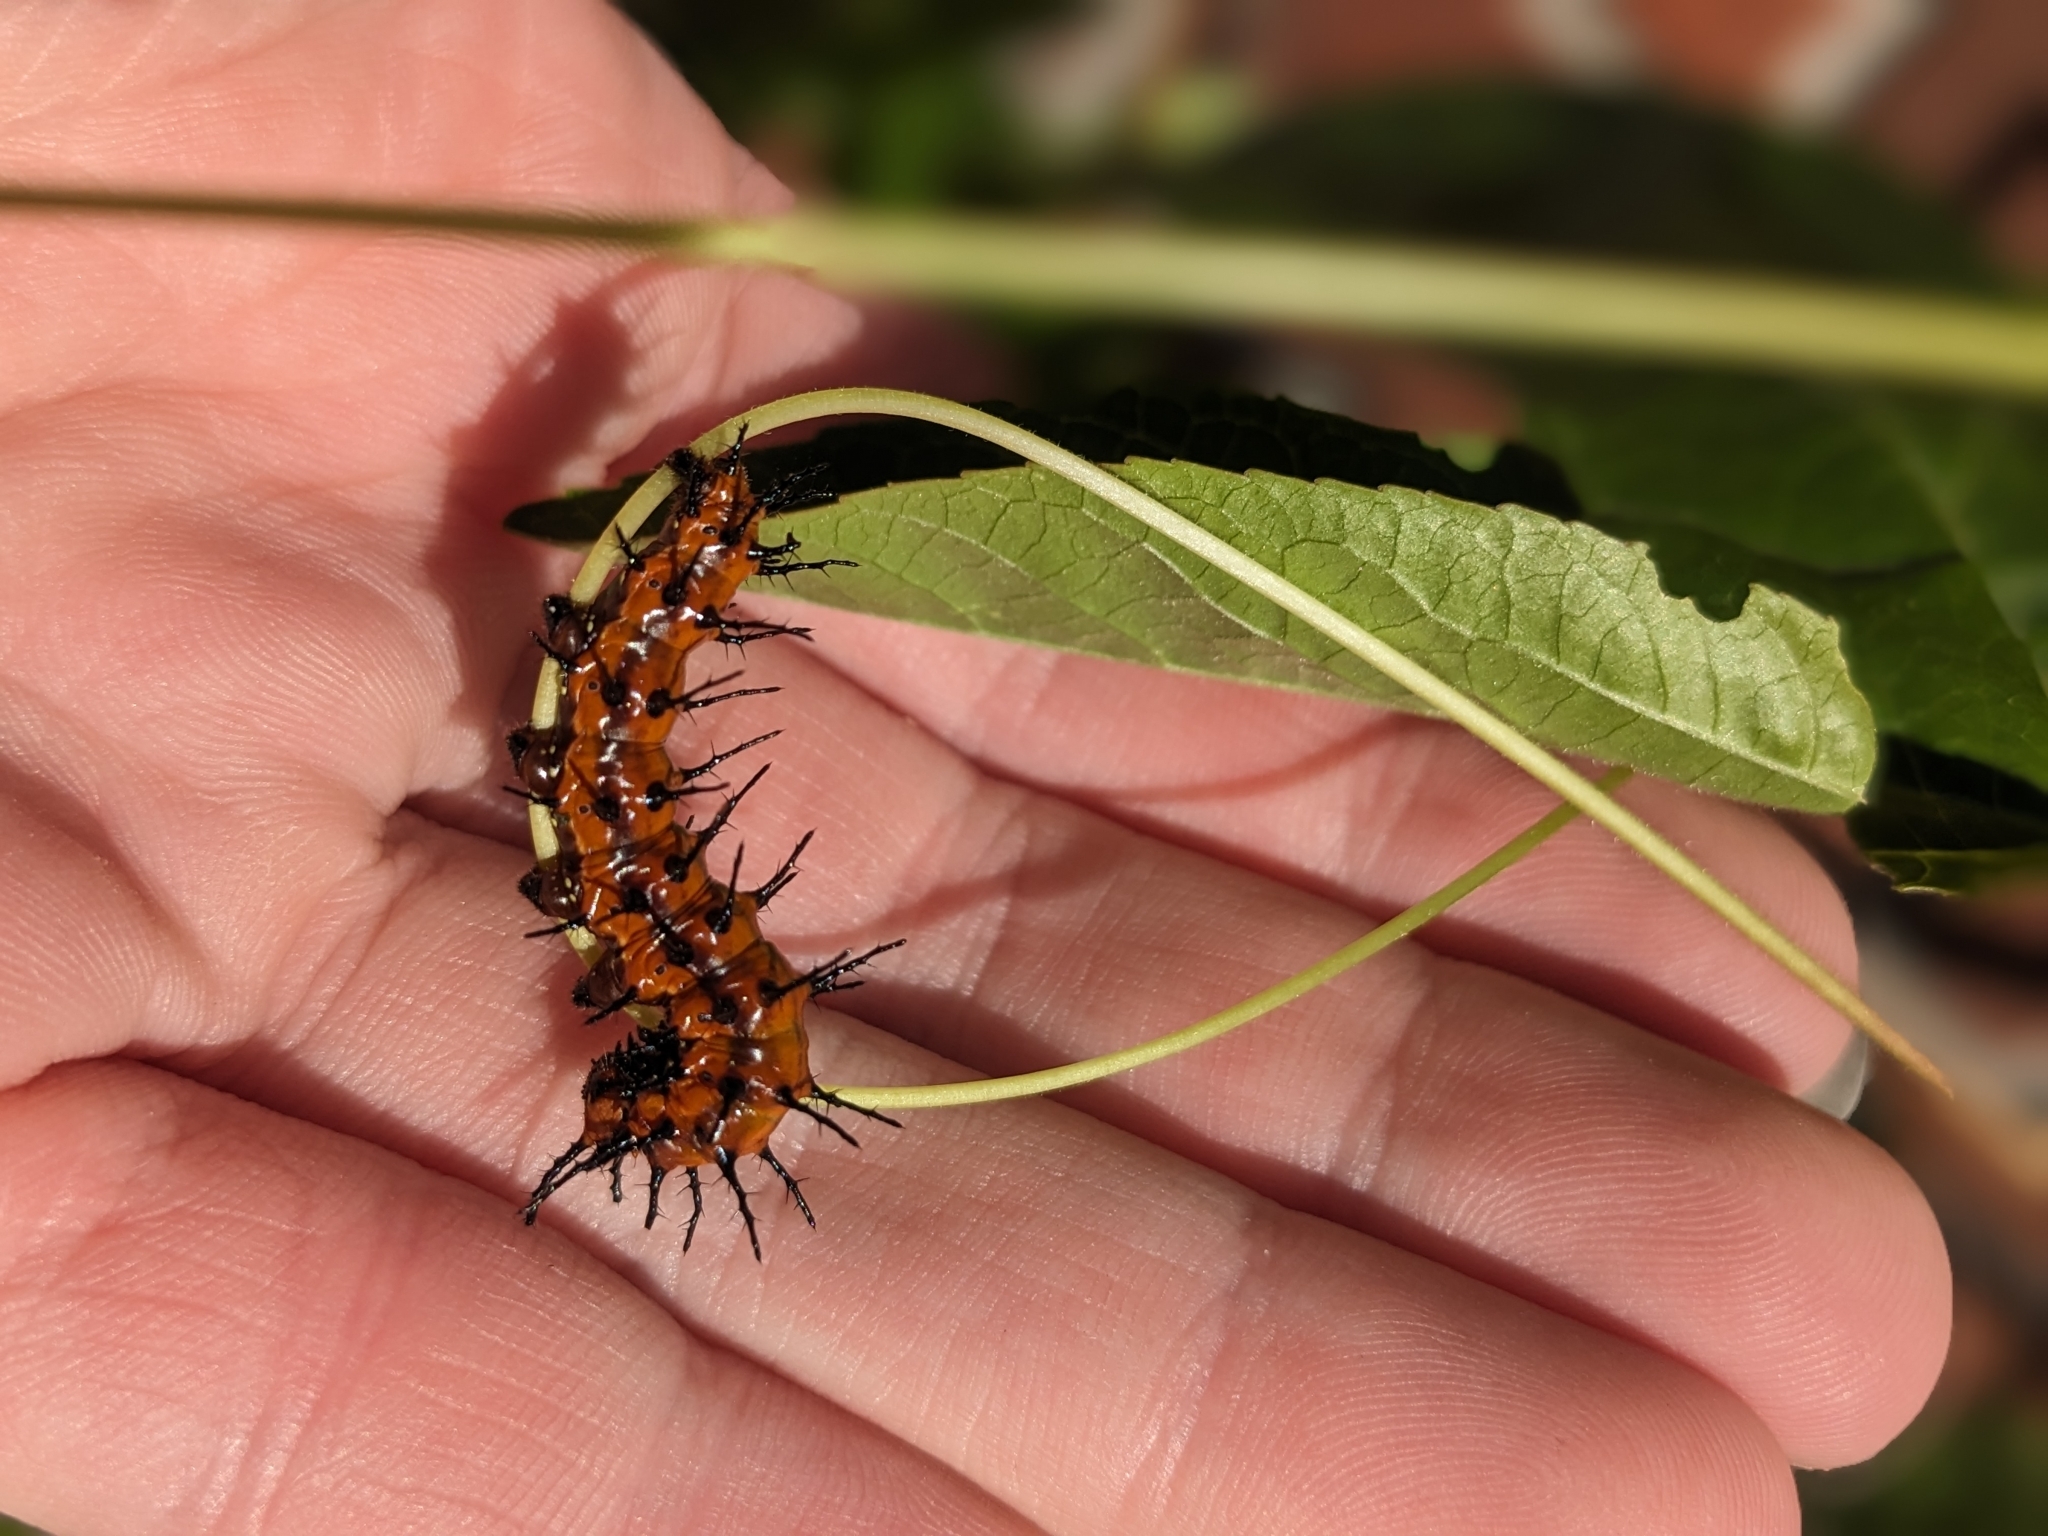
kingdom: Animalia
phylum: Arthropoda
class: Insecta
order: Lepidoptera
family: Nymphalidae
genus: Dione
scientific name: Dione vanillae
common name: Gulf fritillary
